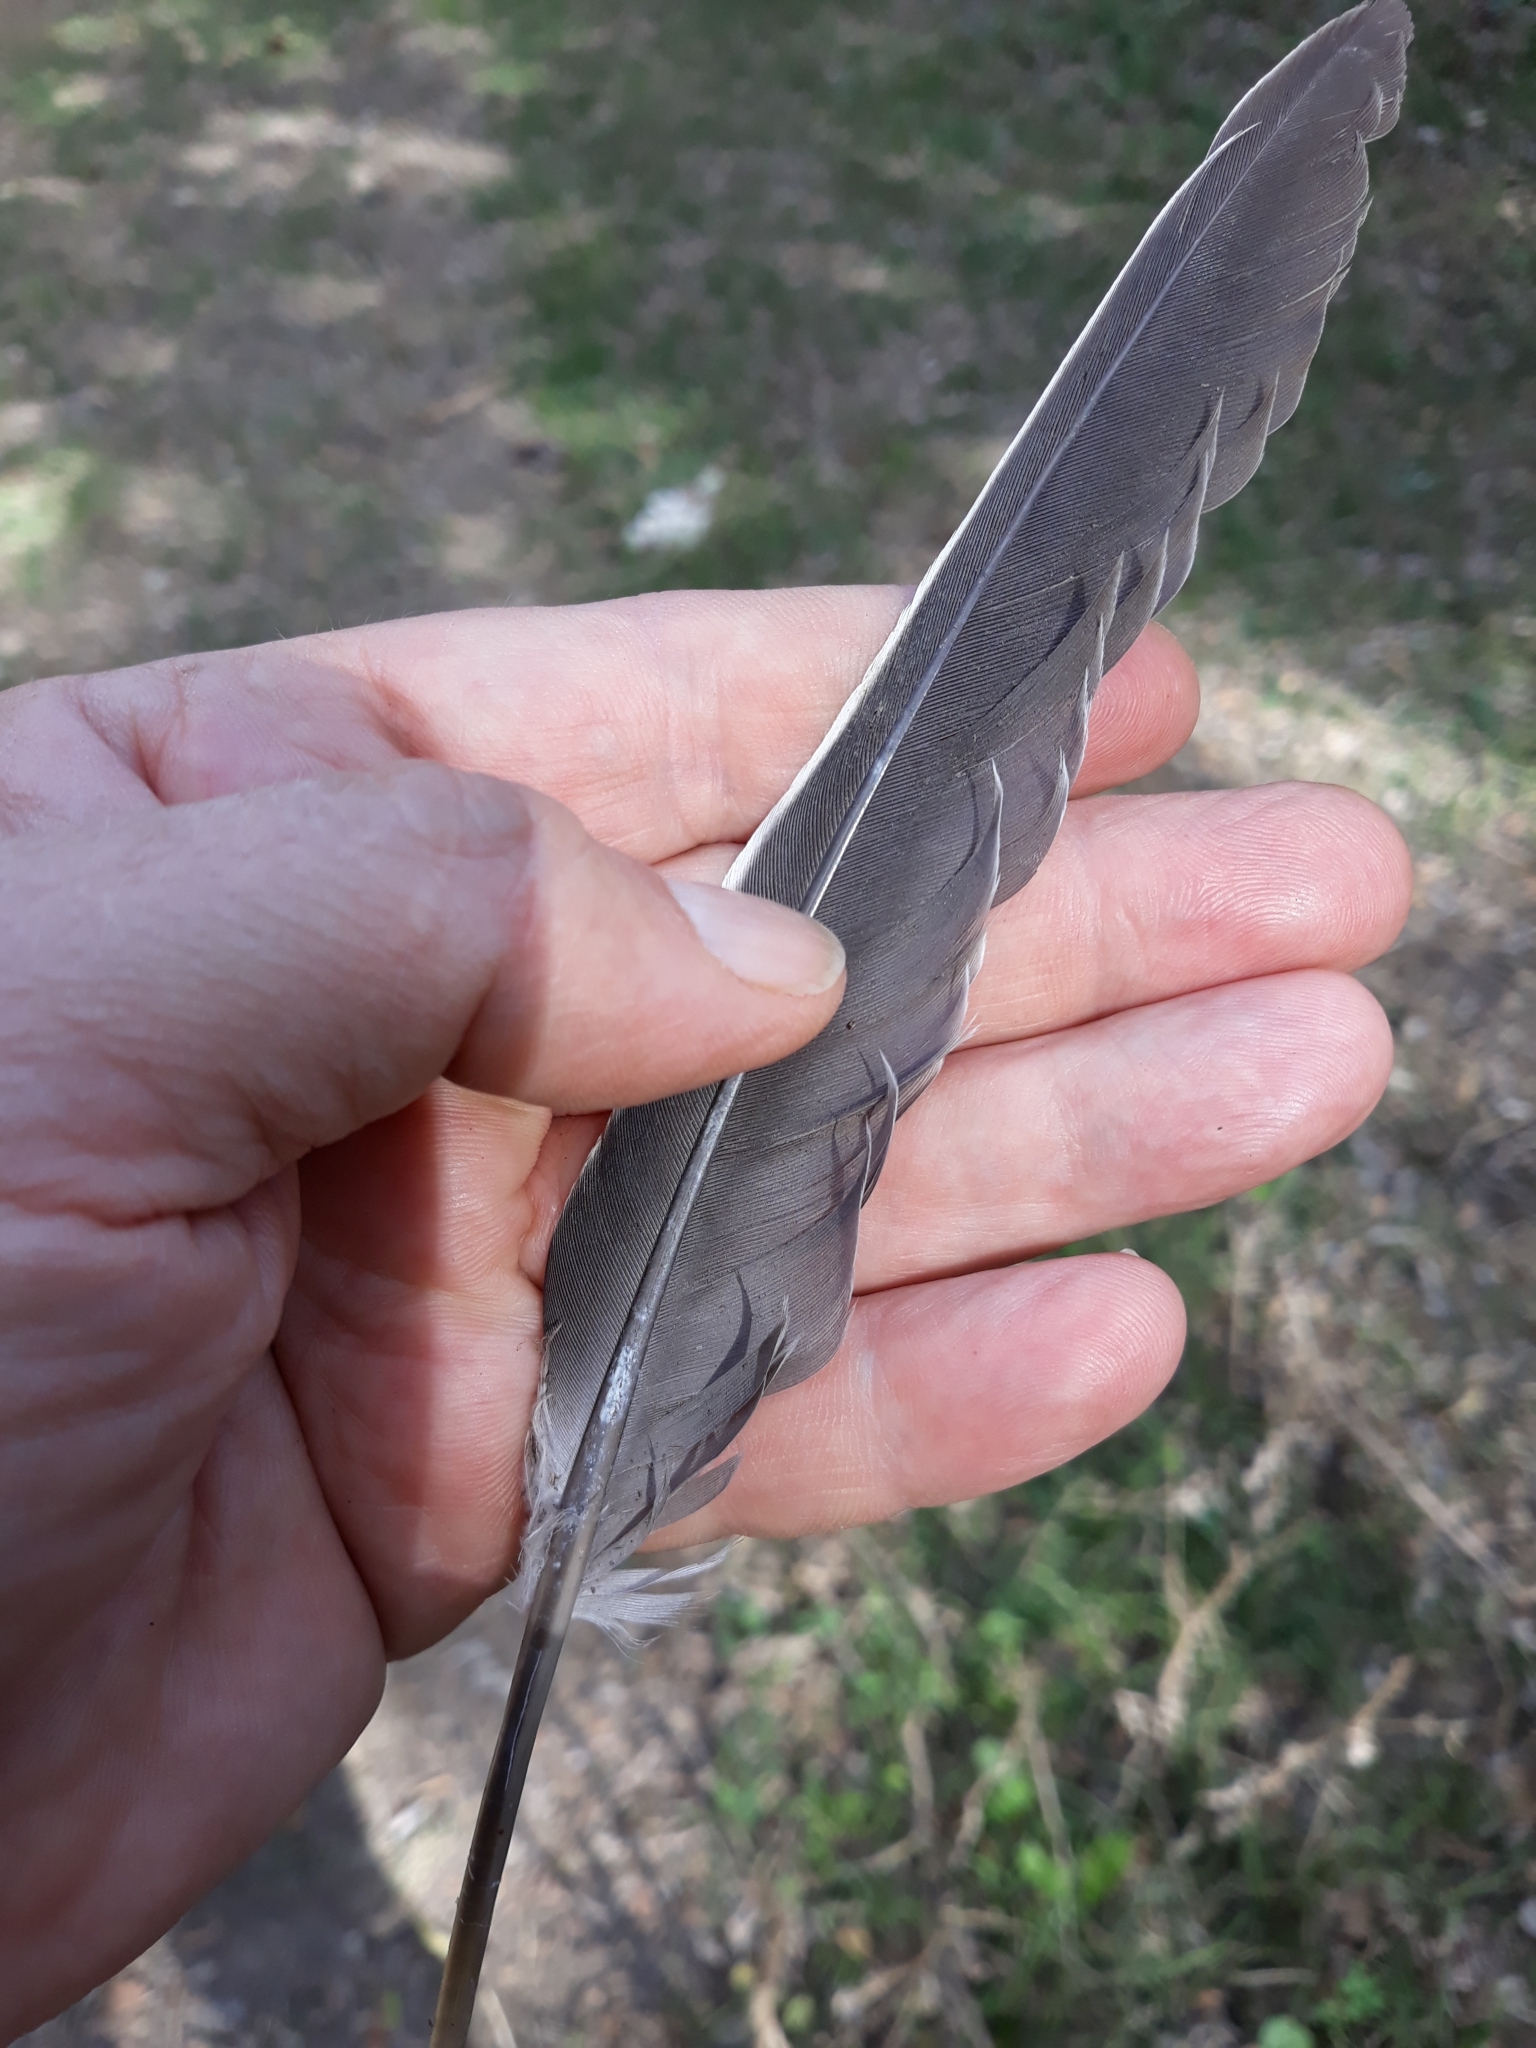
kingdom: Animalia
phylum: Chordata
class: Aves
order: Columbiformes
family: Columbidae
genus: Columba
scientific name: Columba palumbus
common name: Common wood pigeon
